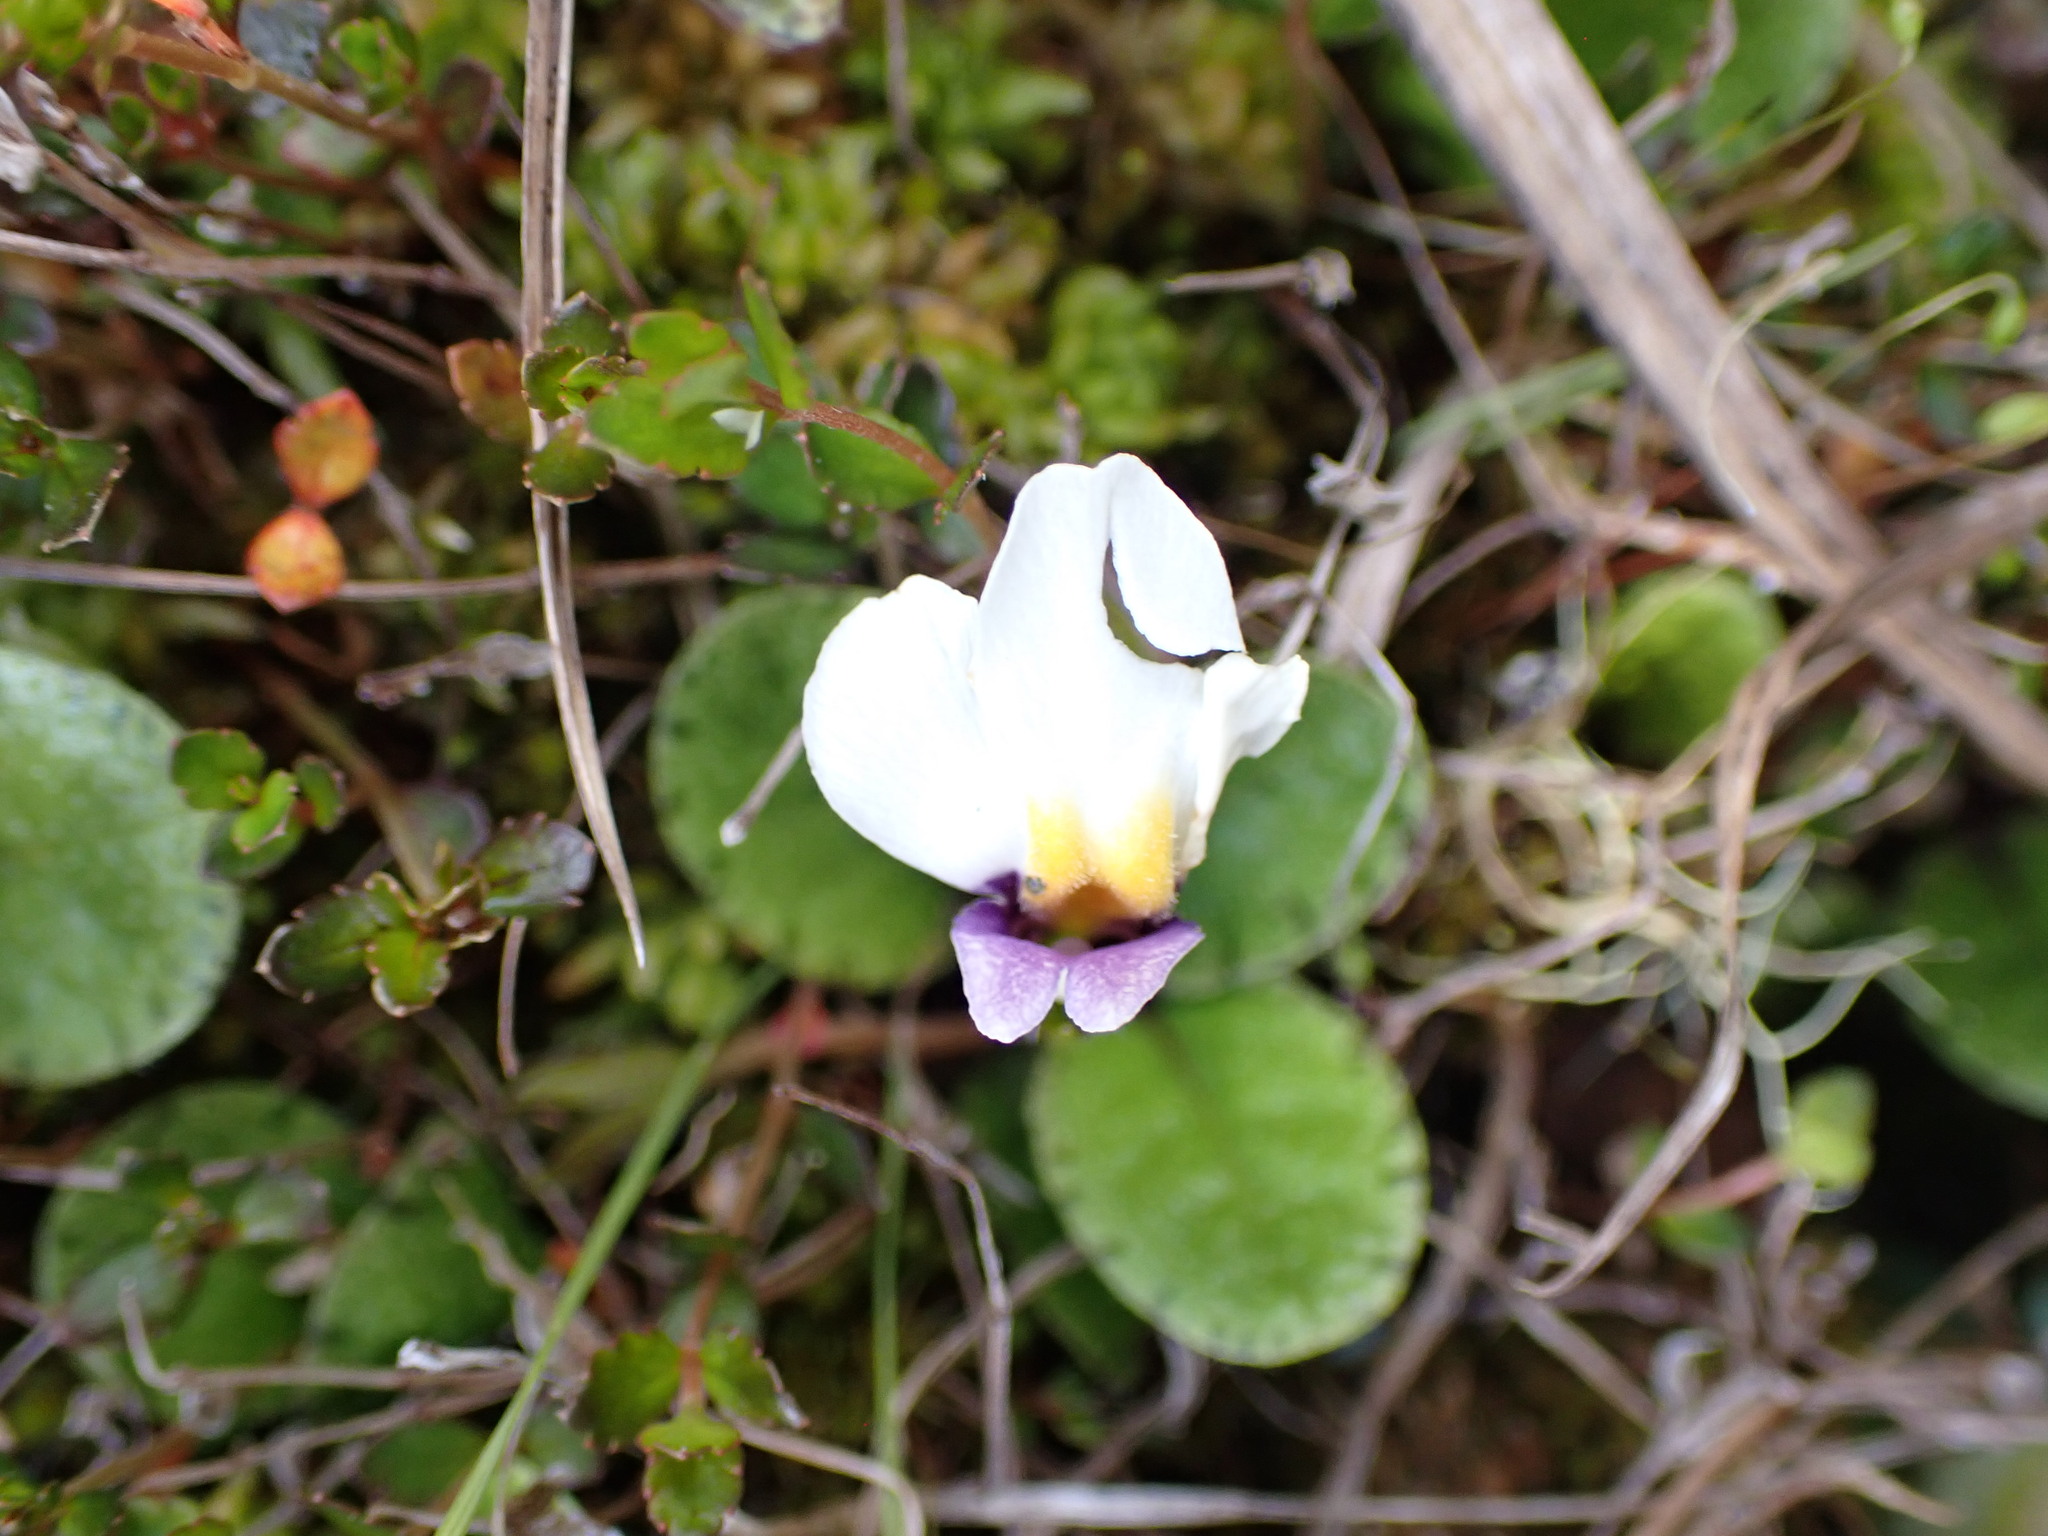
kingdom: Plantae
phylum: Tracheophyta
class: Magnoliopsida
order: Lamiales
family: Mazaceae
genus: Mazus
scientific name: Mazus radicans
